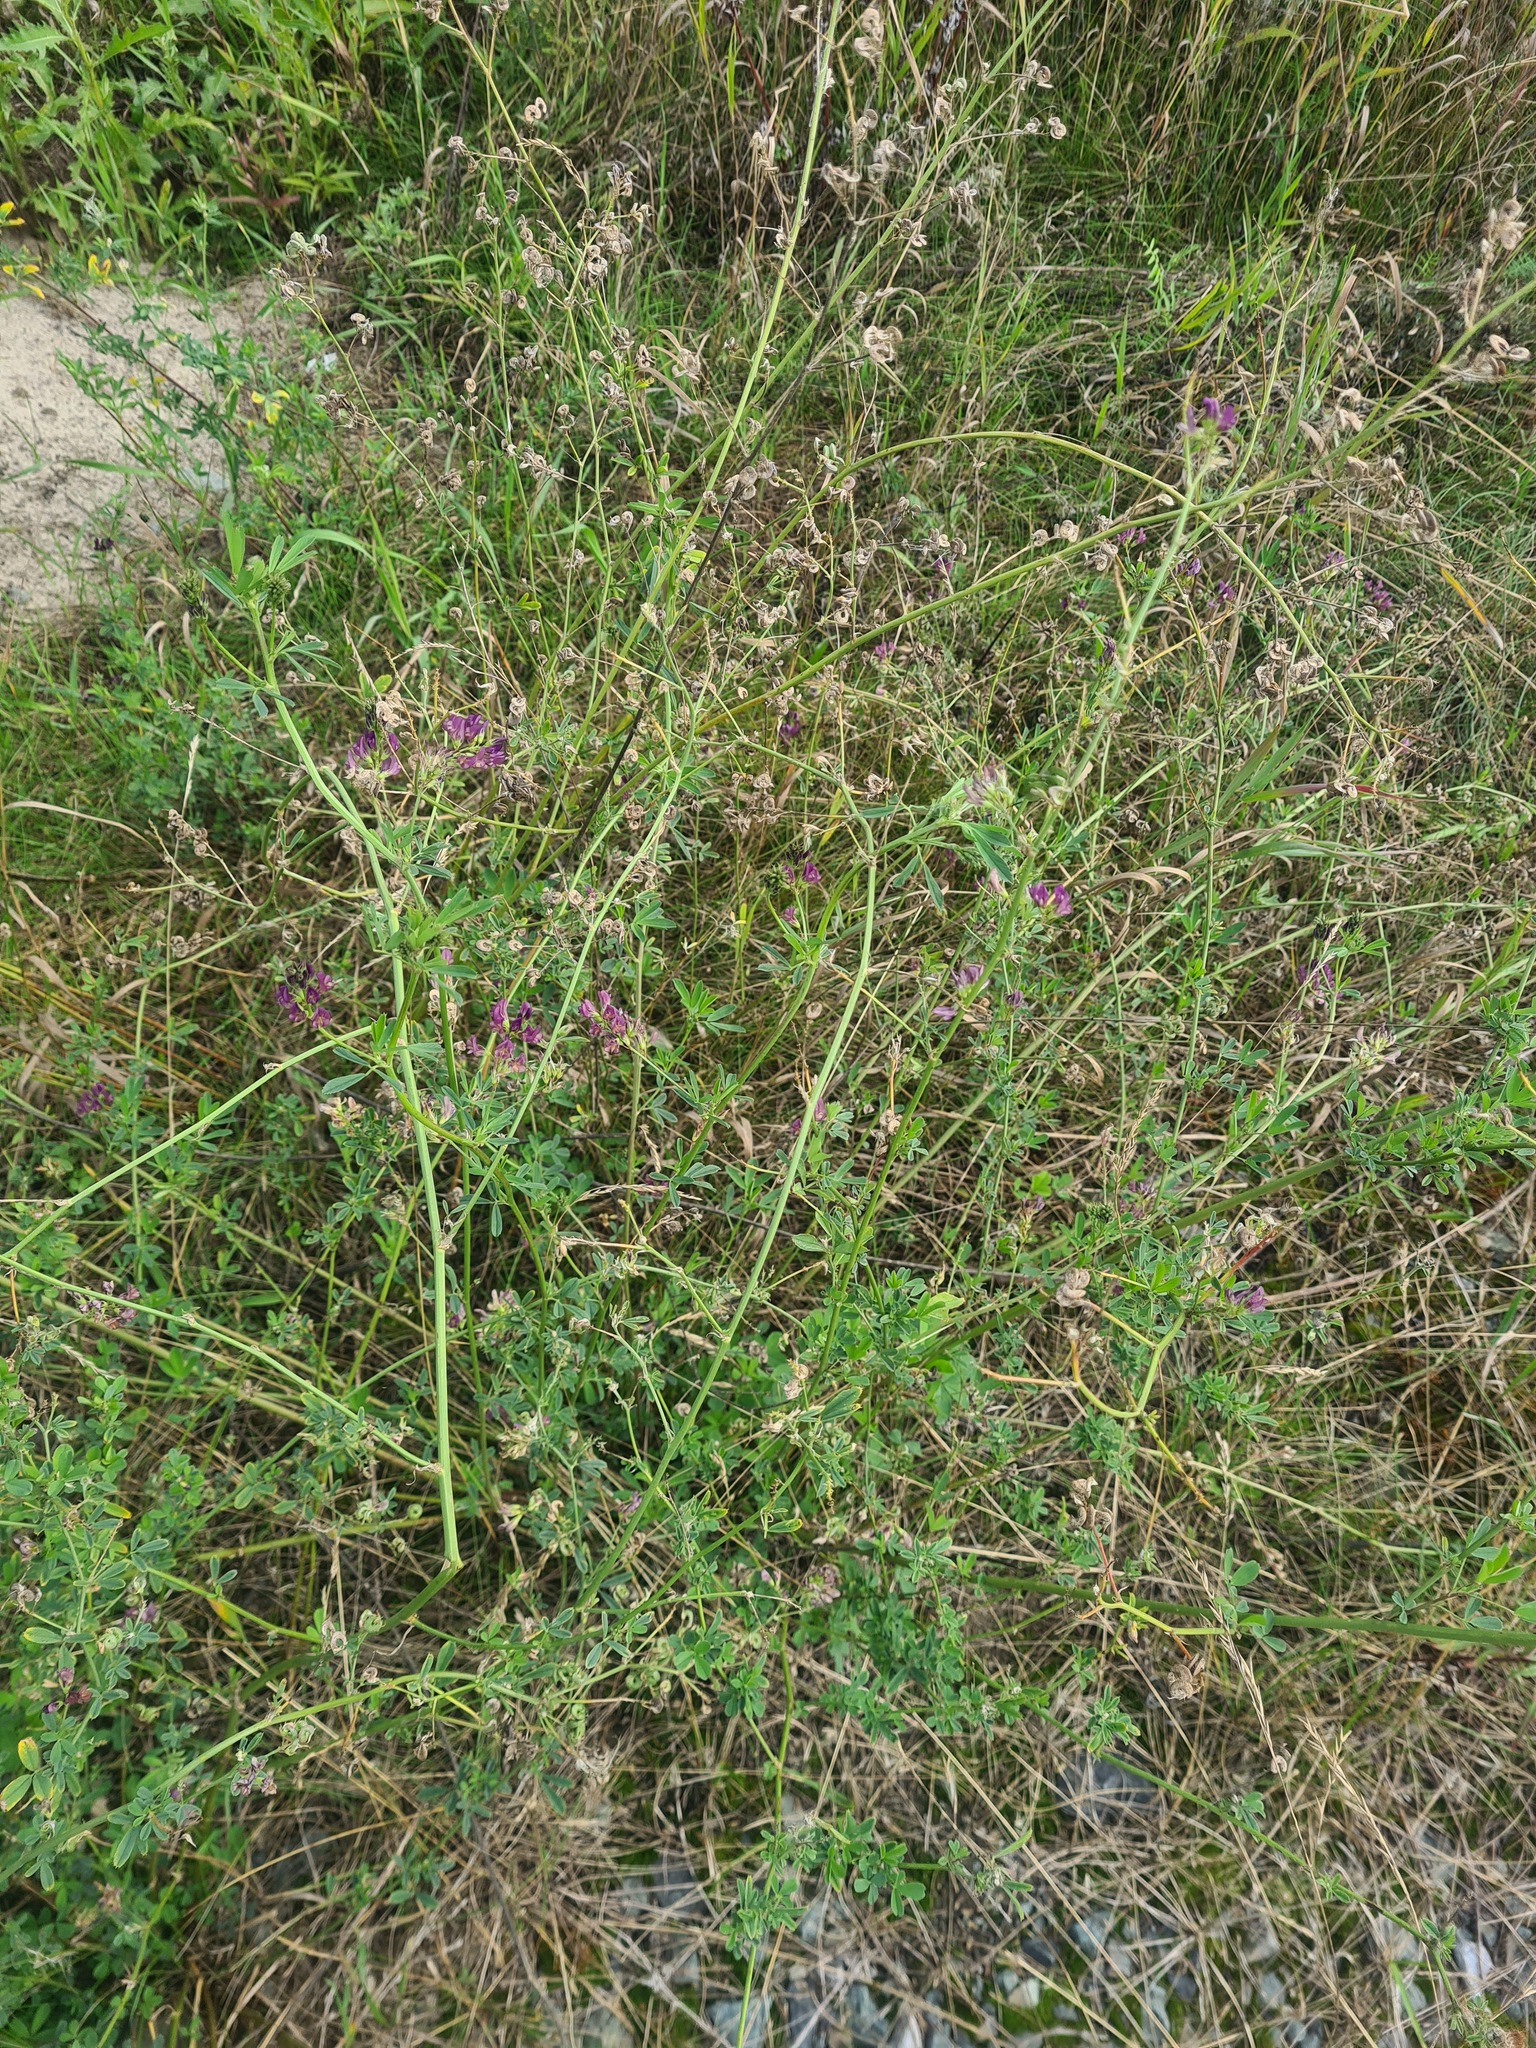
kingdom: Plantae
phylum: Tracheophyta
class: Magnoliopsida
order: Fabales
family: Fabaceae
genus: Medicago
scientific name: Medicago varia
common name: Sand lucerne
